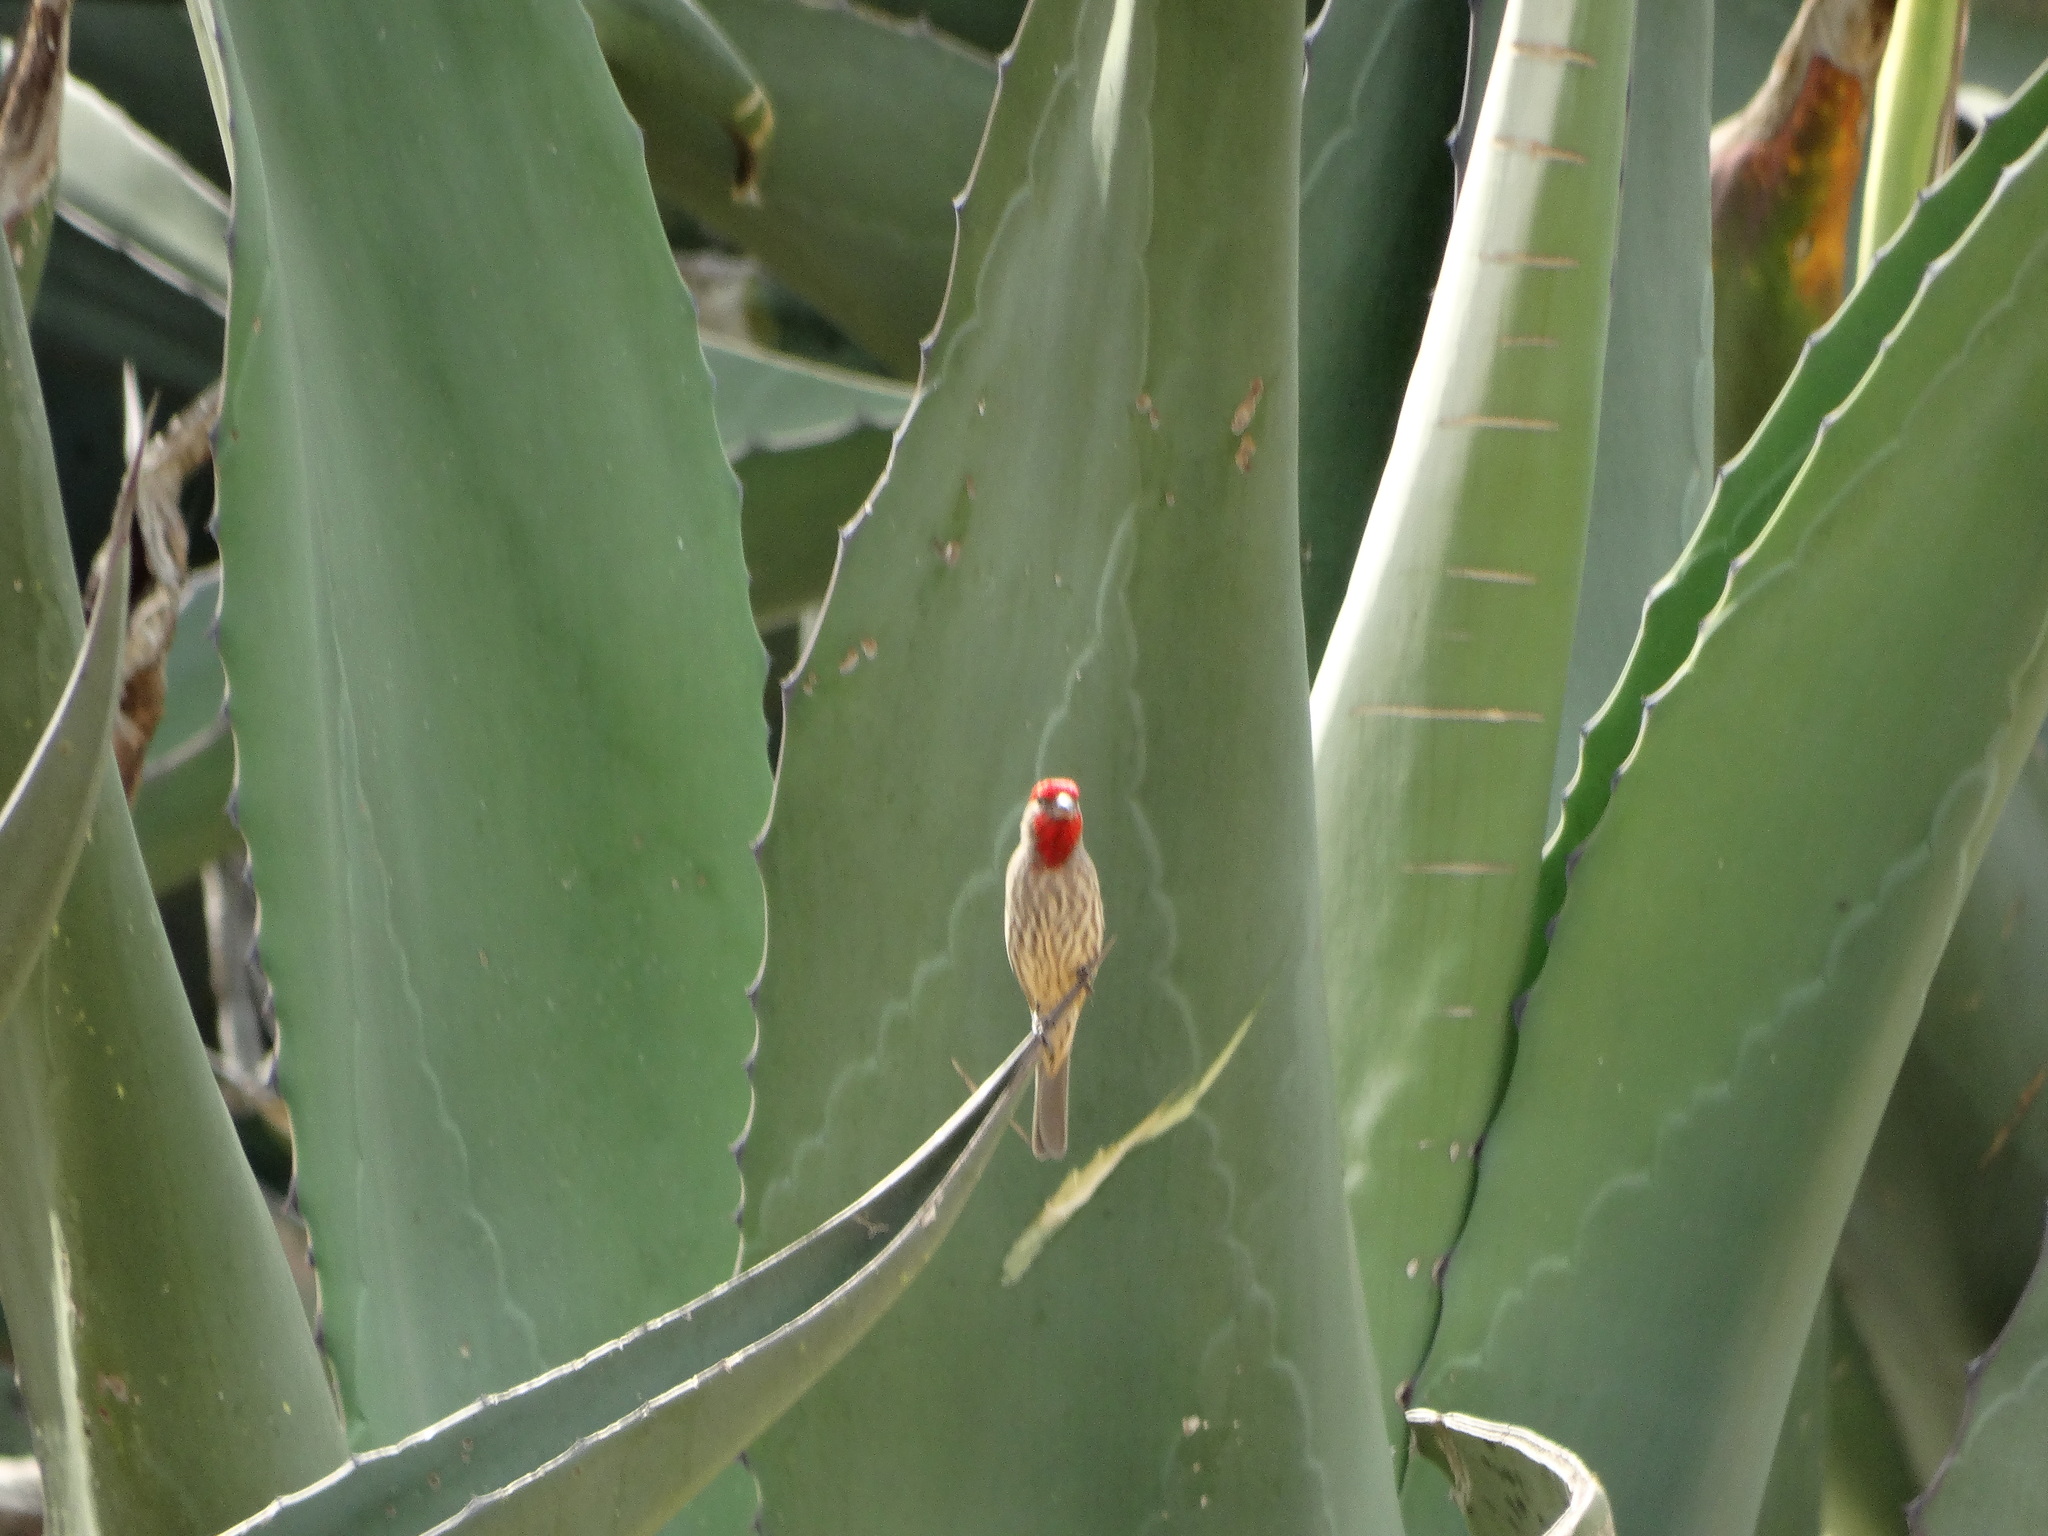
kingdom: Animalia
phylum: Chordata
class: Aves
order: Passeriformes
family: Fringillidae
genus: Haemorhous
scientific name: Haemorhous mexicanus
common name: House finch
